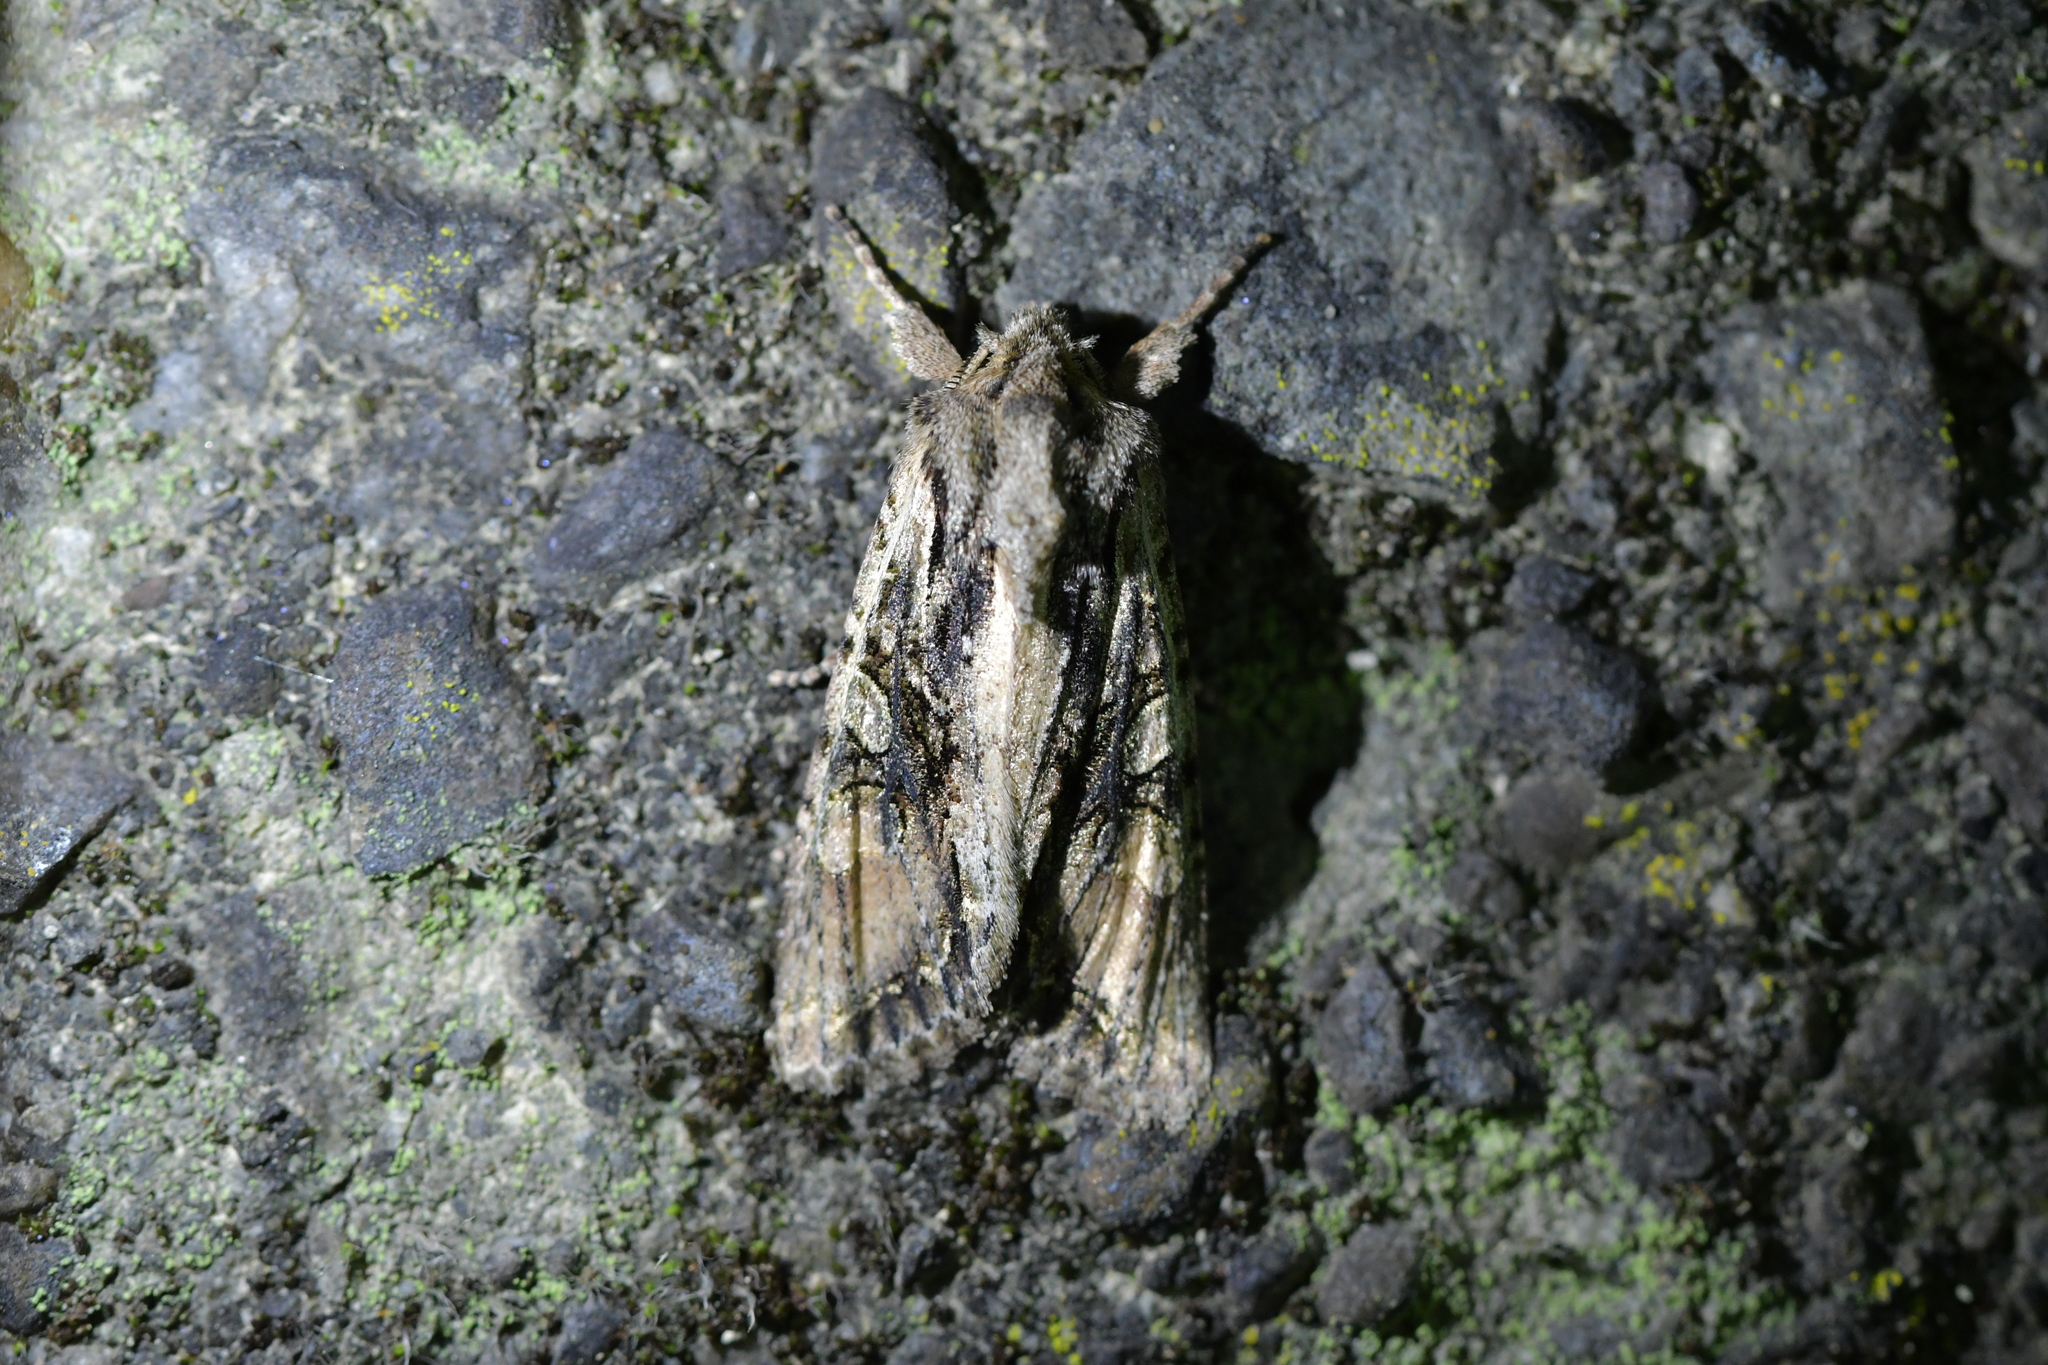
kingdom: Animalia
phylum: Arthropoda
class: Insecta
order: Lepidoptera
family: Noctuidae
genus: Ichneutica
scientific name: Ichneutica mutans
